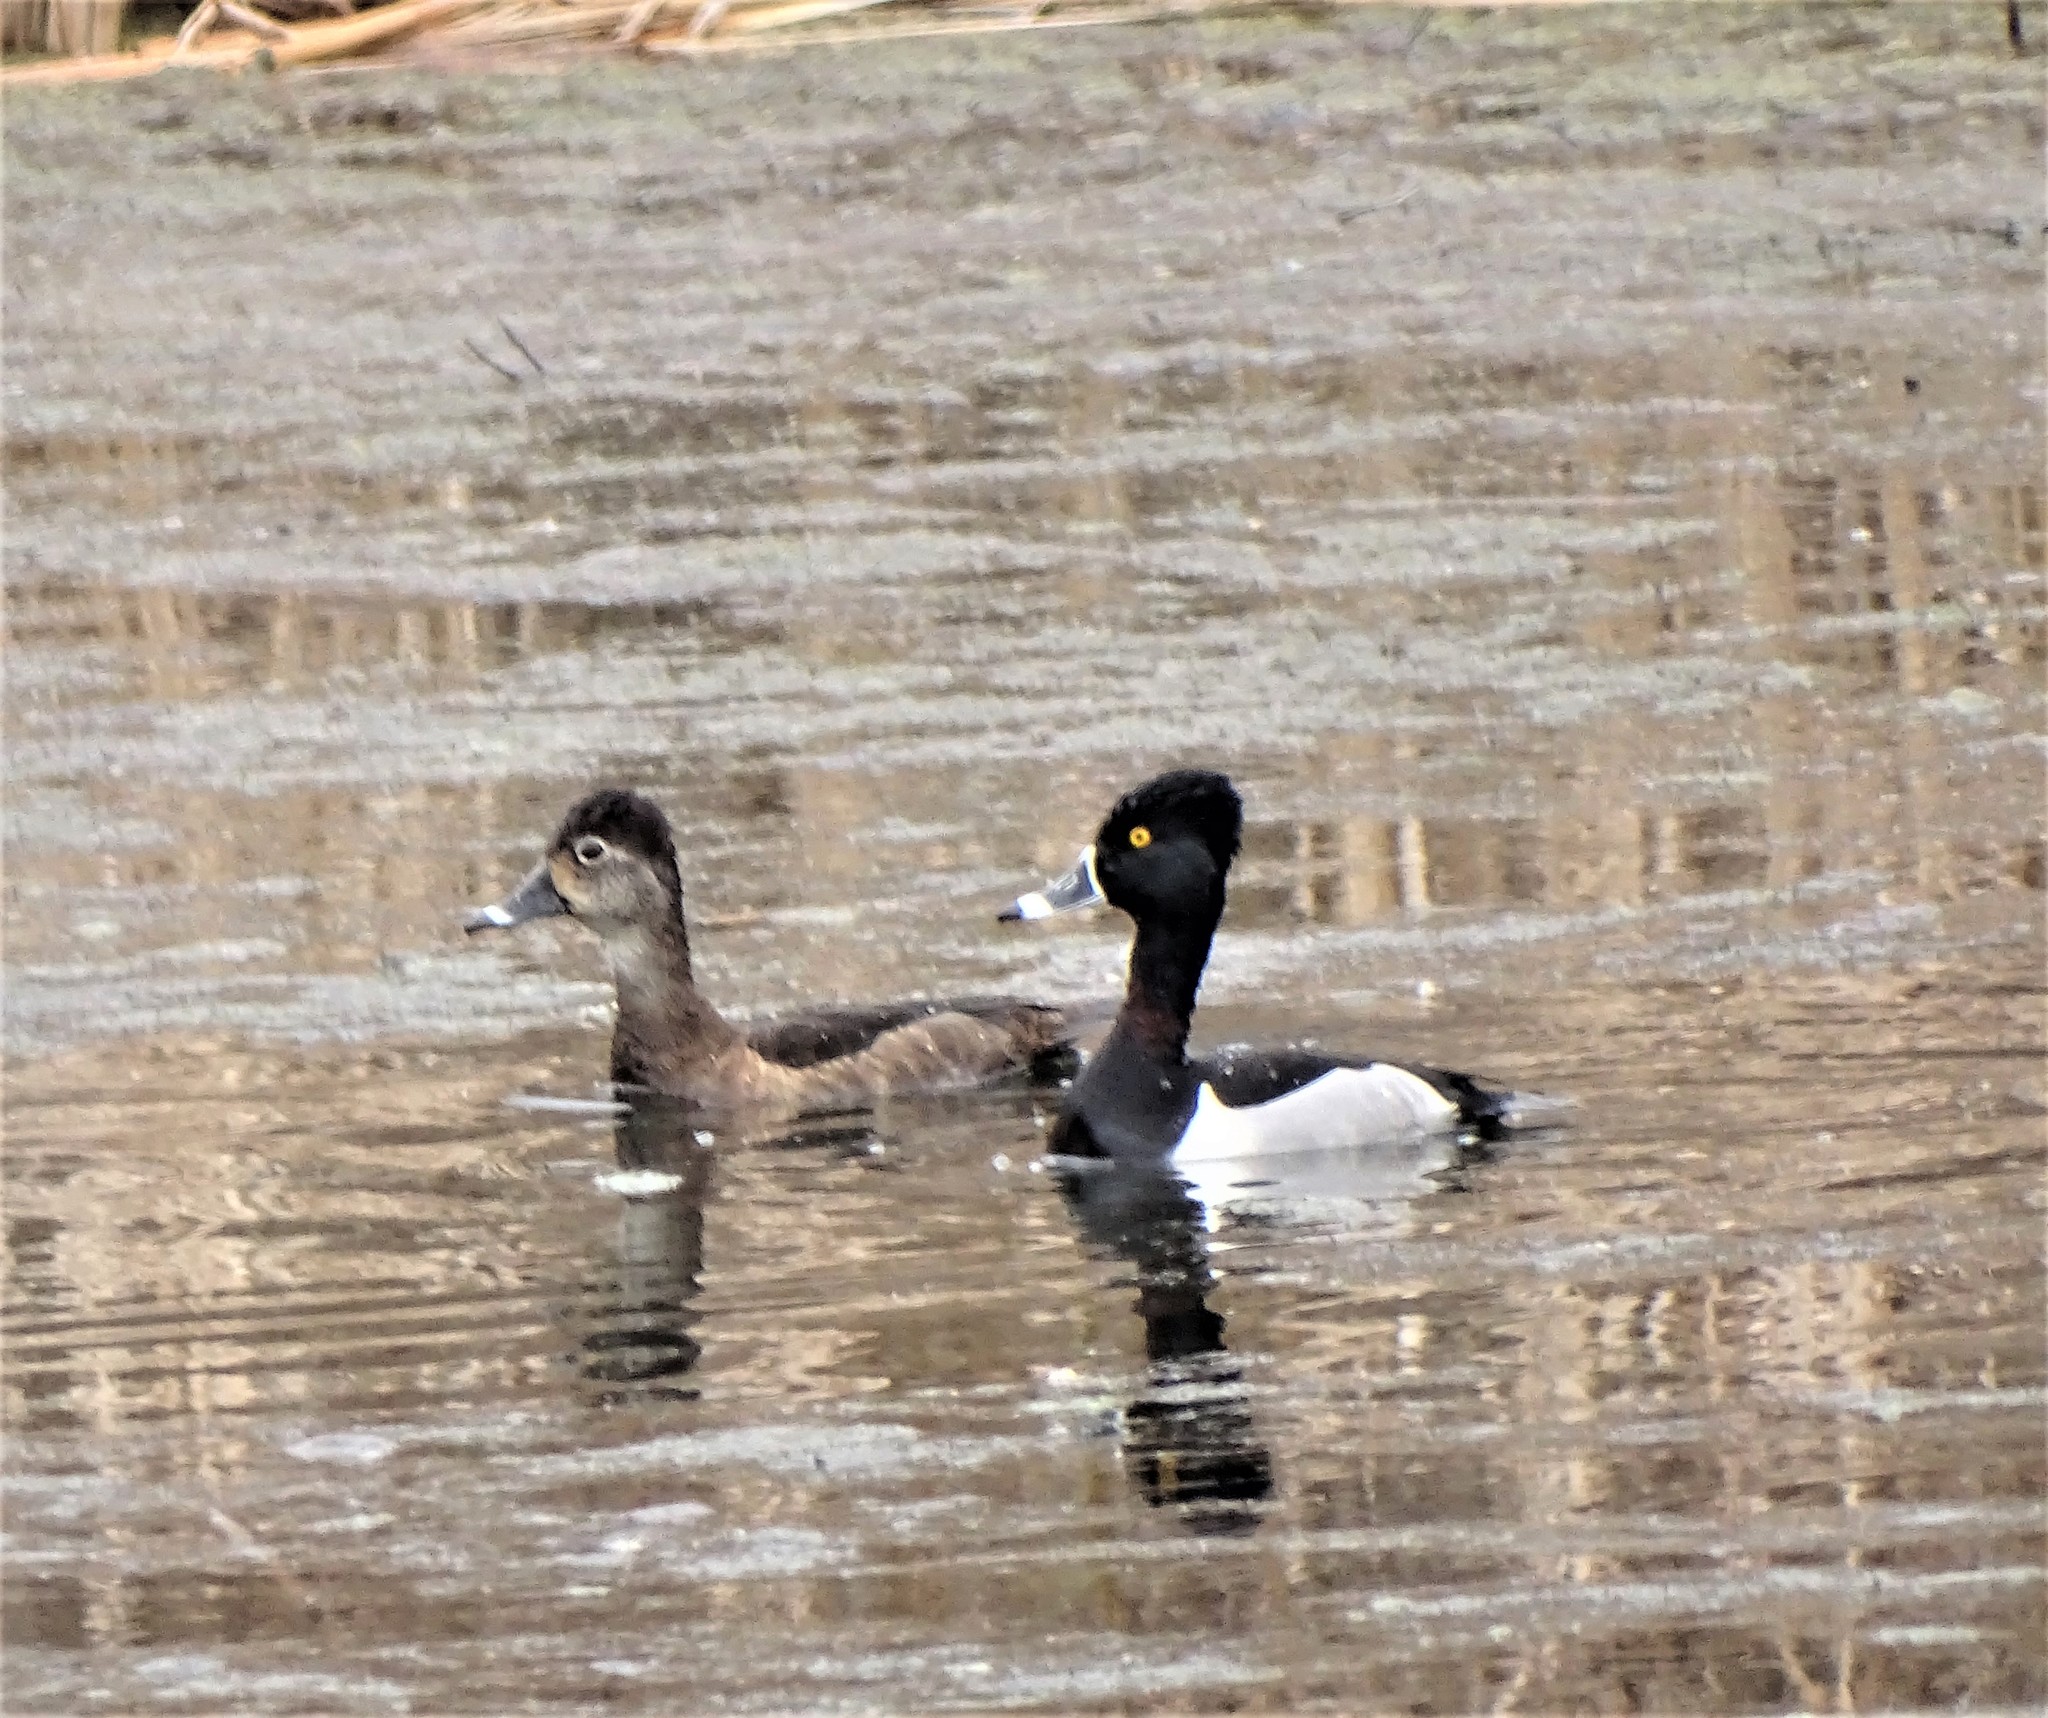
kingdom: Animalia
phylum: Chordata
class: Aves
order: Anseriformes
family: Anatidae
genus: Aythya
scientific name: Aythya collaris
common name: Ring-necked duck
